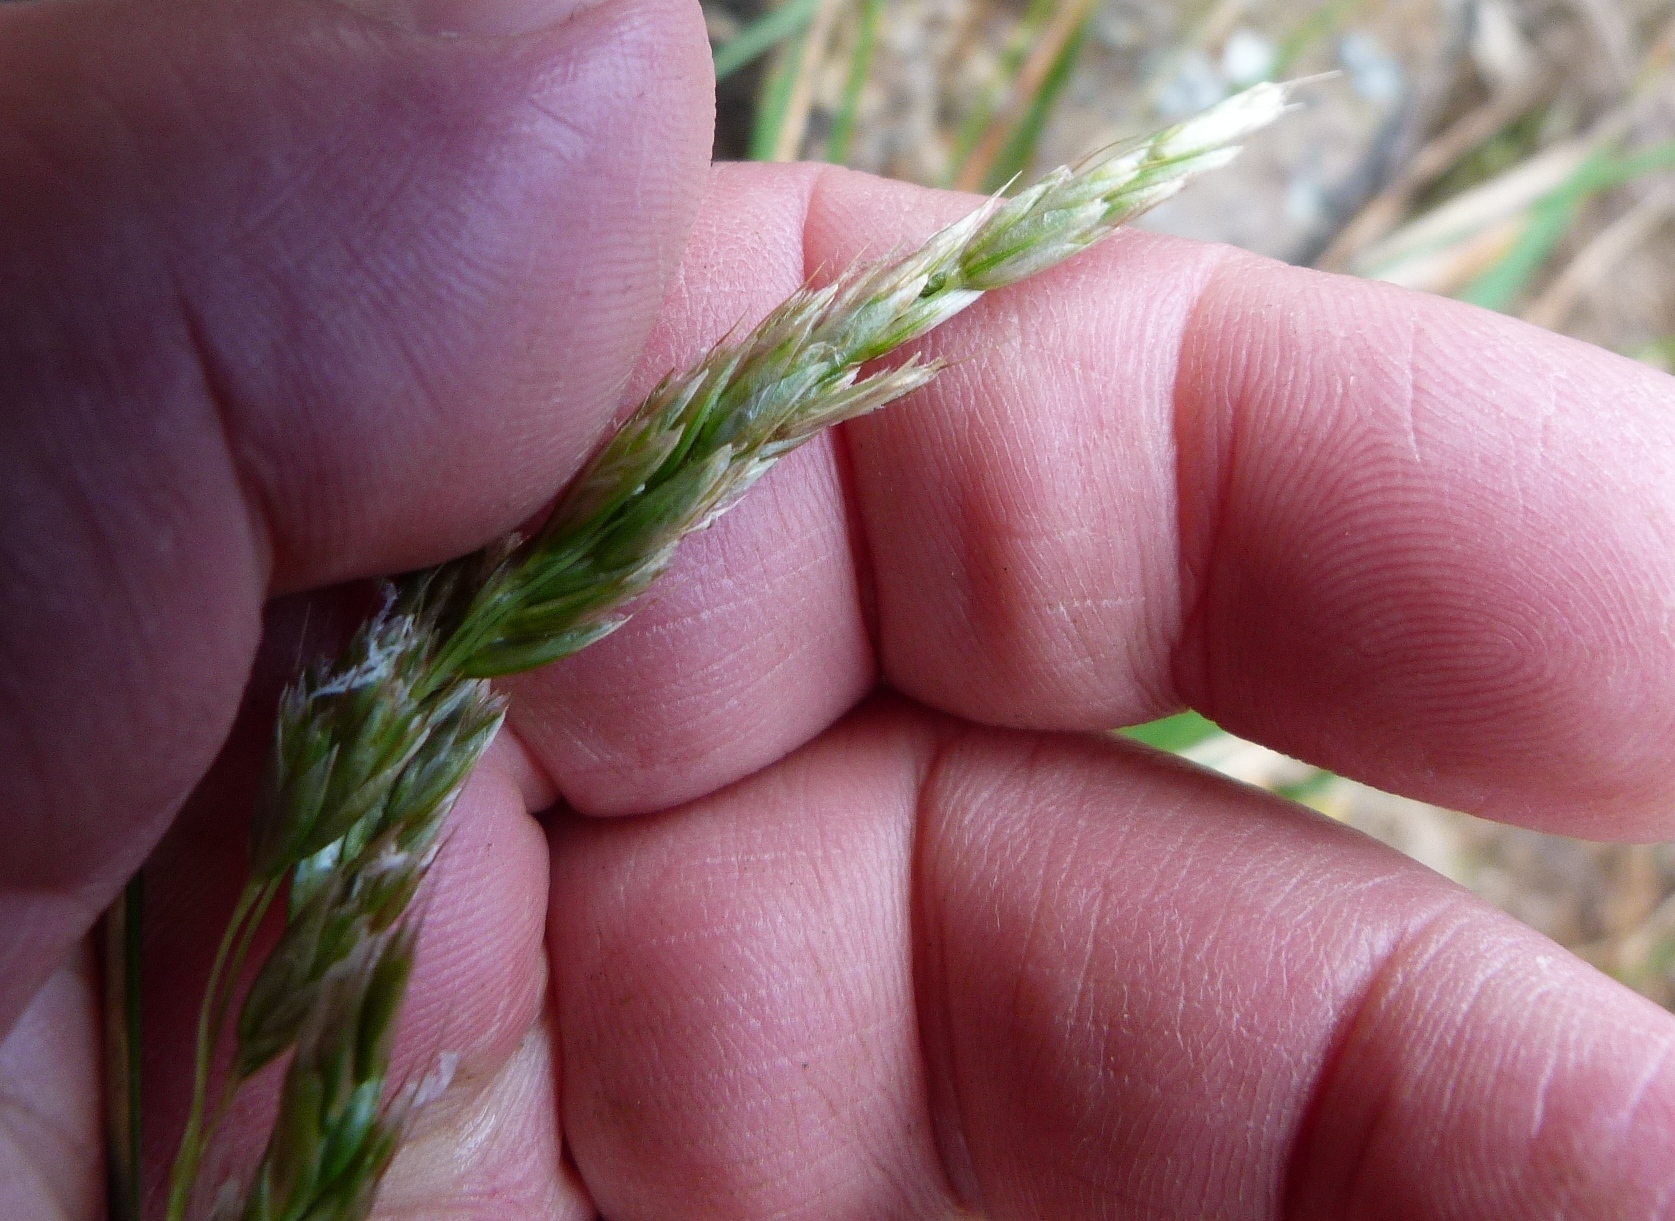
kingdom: Plantae
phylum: Tracheophyta
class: Liliopsida
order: Poales
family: Poaceae
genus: Anthoxanthum
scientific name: Anthoxanthum redolens
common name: Sweet holy grass
